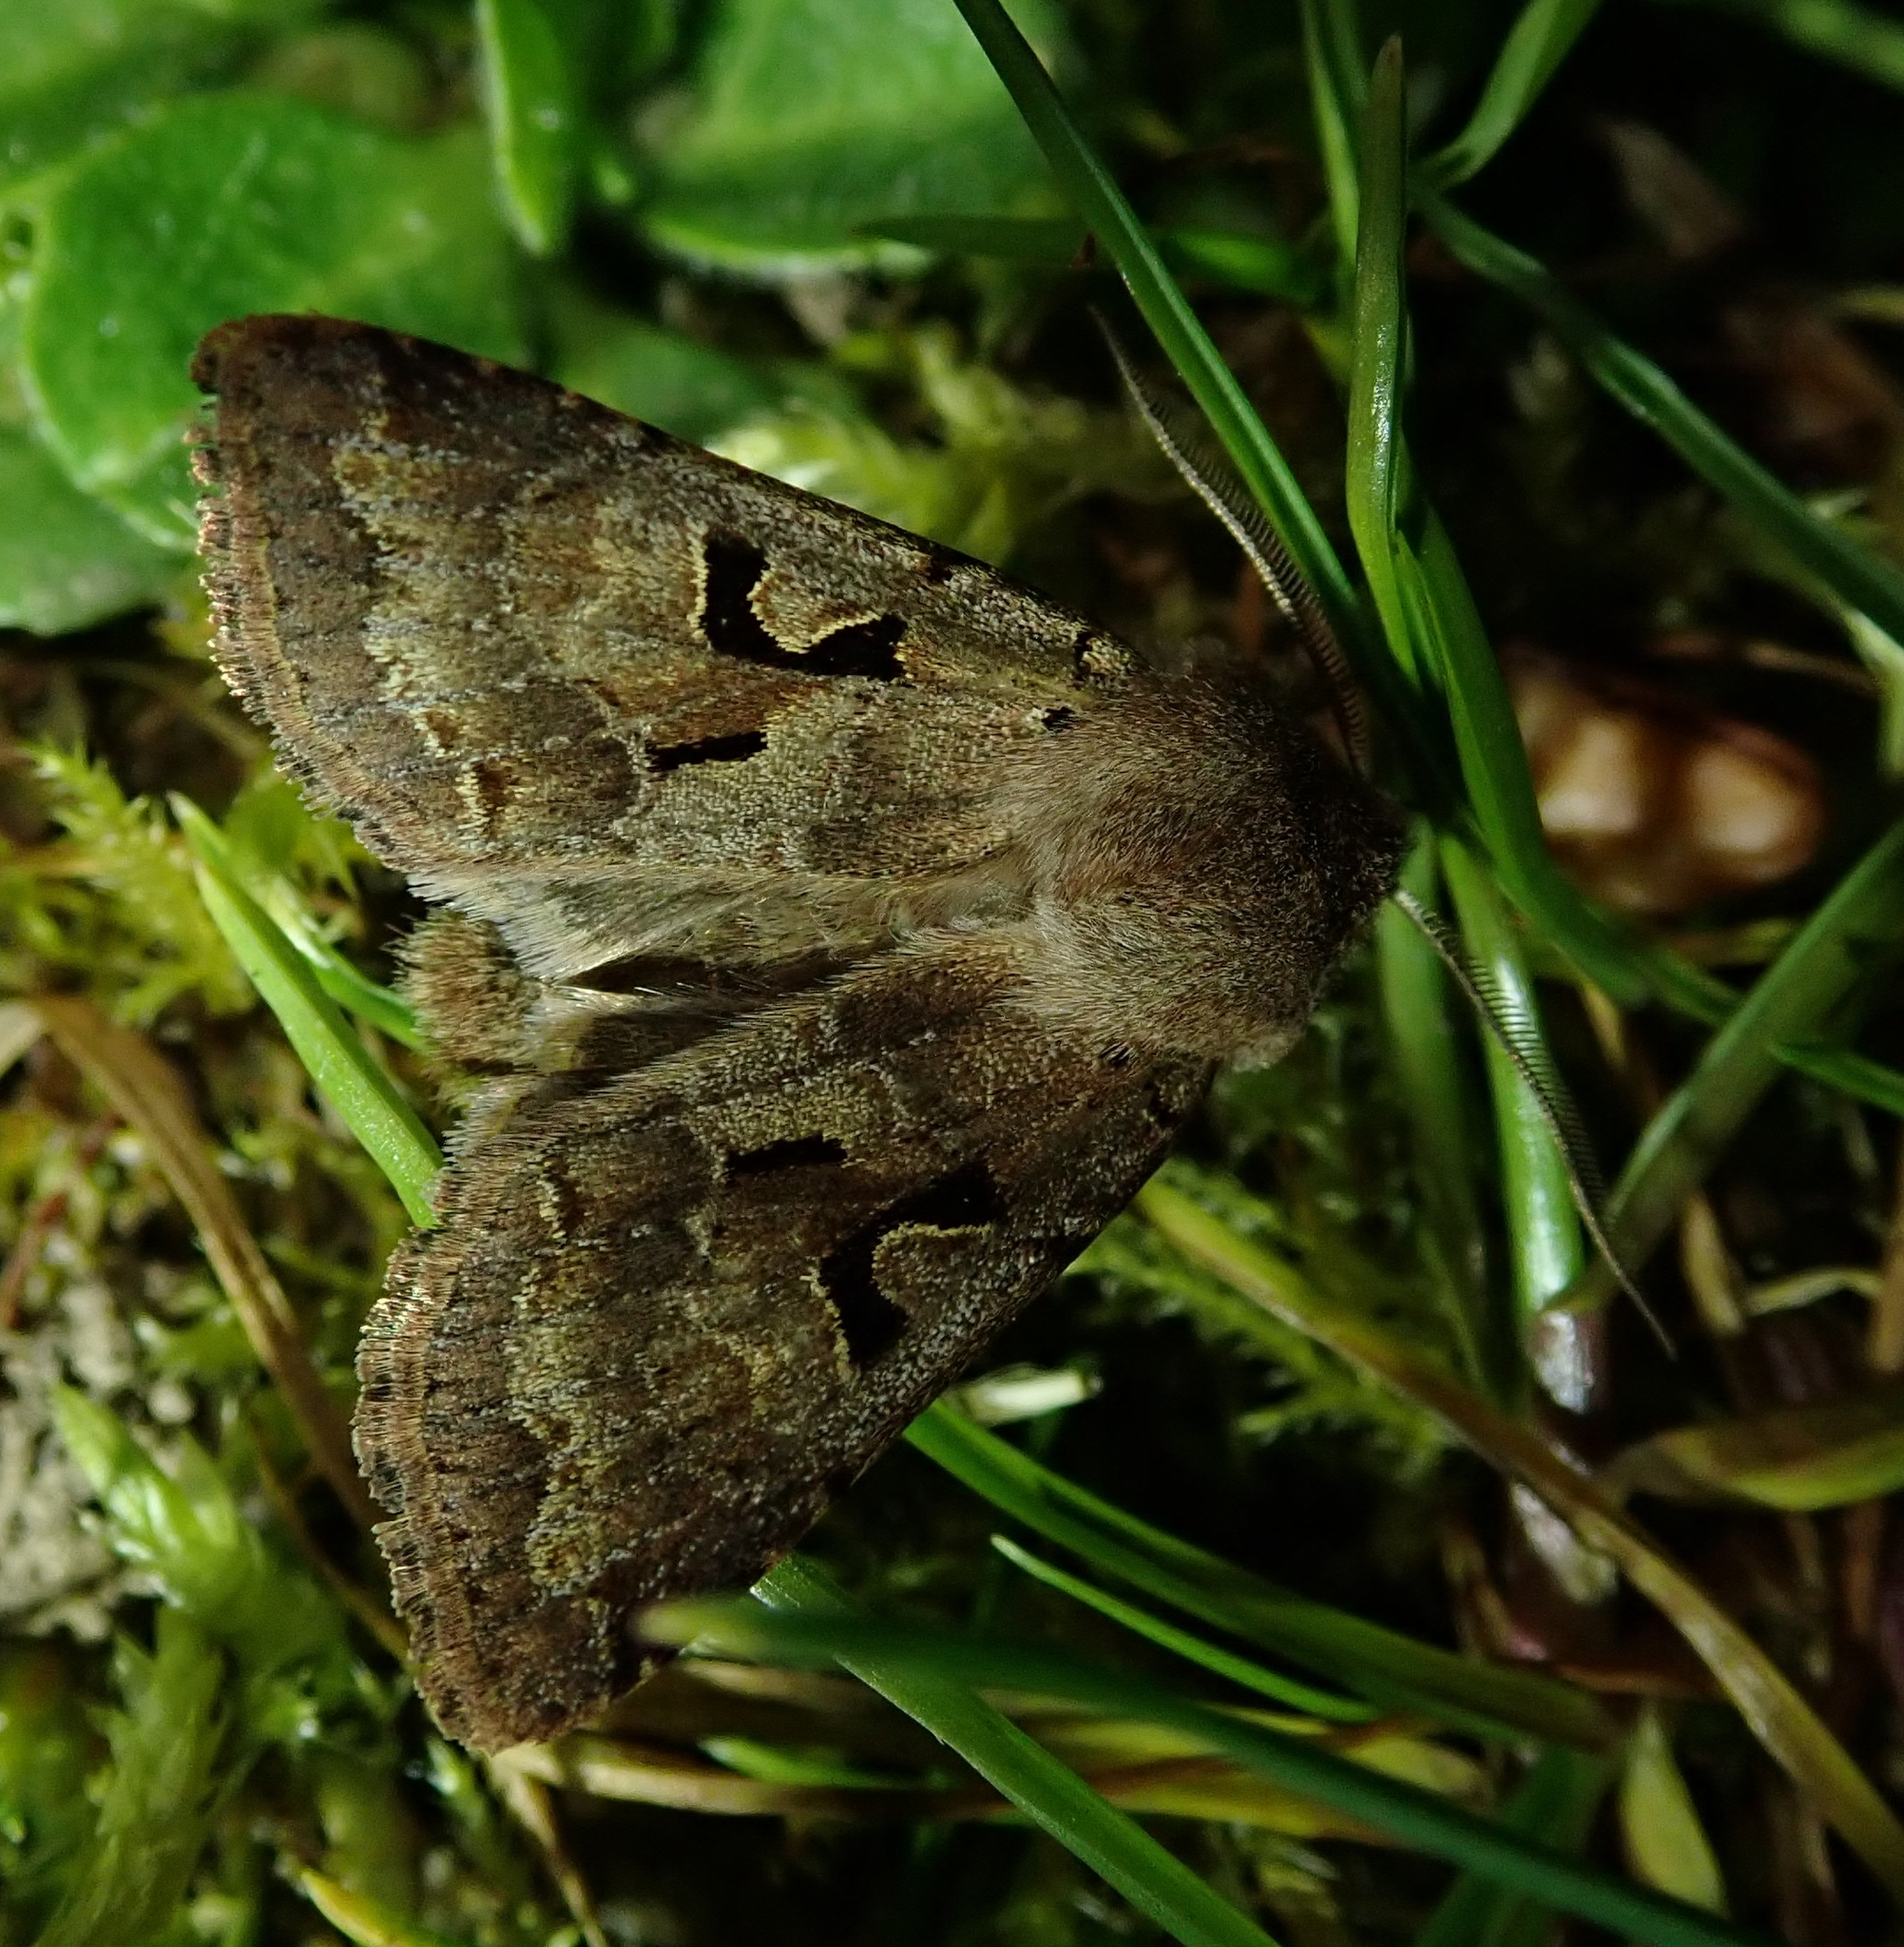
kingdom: Animalia
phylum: Arthropoda
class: Insecta
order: Lepidoptera
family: Noctuidae
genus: Orthosia
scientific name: Orthosia gothica
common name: Hebrew character
